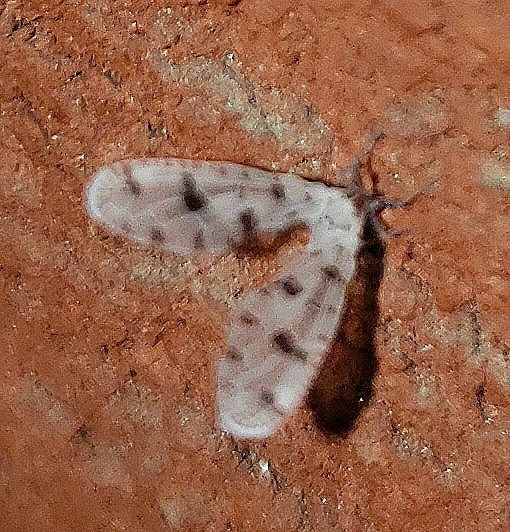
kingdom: Animalia
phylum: Arthropoda
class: Insecta
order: Hemiptera
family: Derbidae
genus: Sikaiana
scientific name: Sikaiana harti
